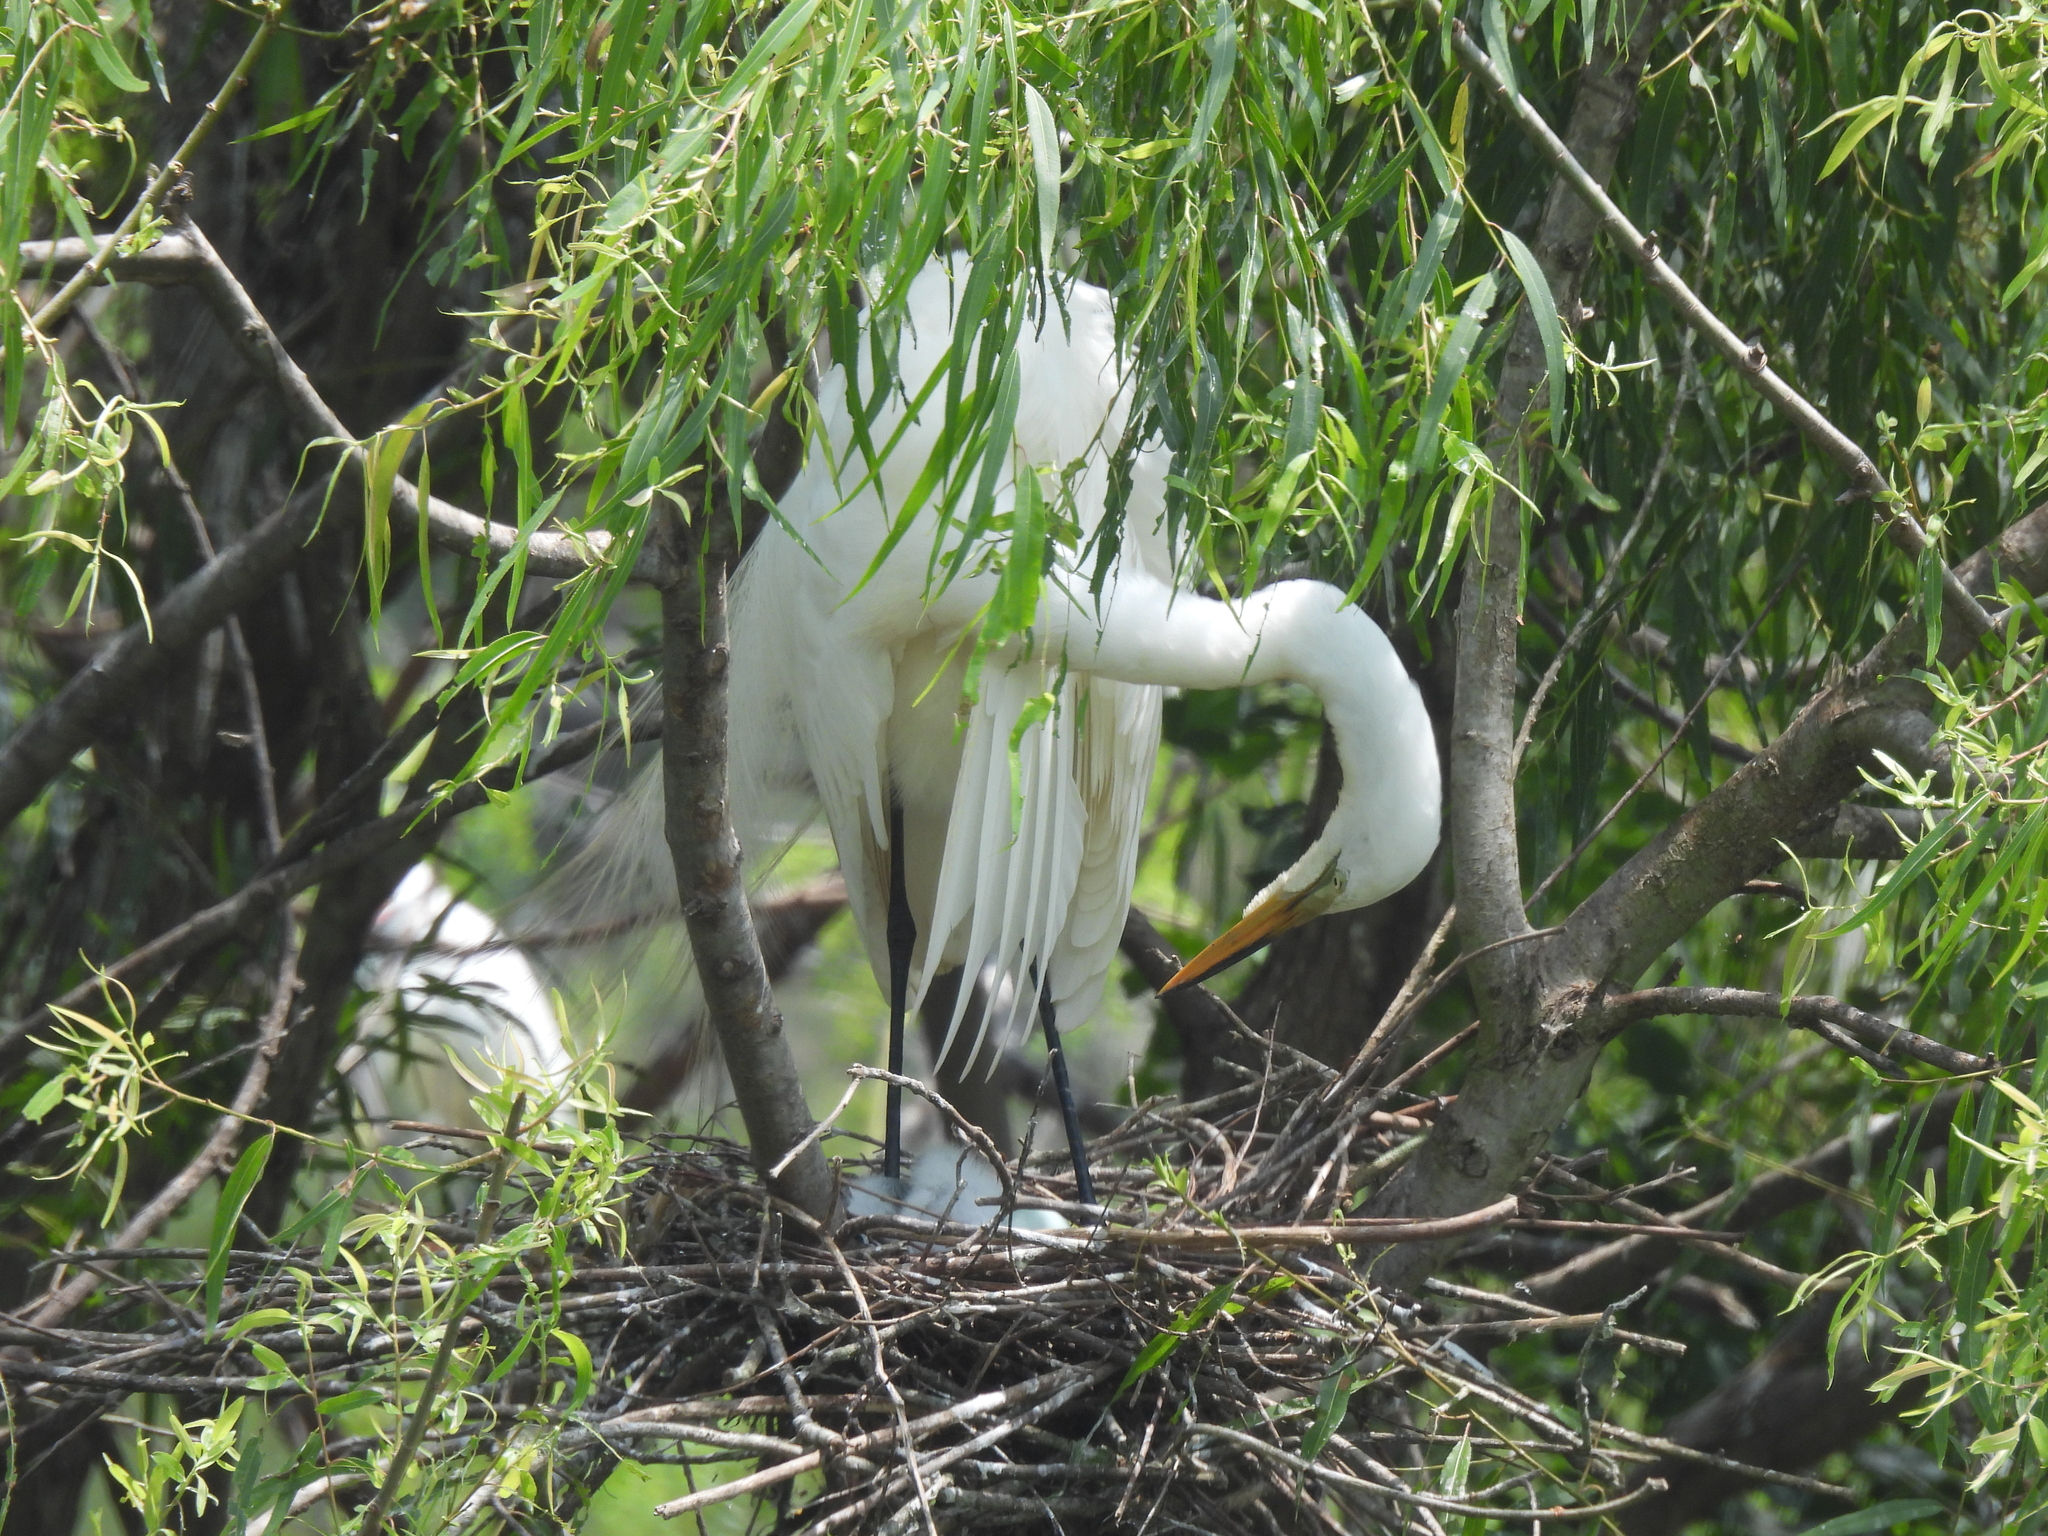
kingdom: Animalia
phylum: Chordata
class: Aves
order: Pelecaniformes
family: Ardeidae
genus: Ardea
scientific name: Ardea alba
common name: Great egret
